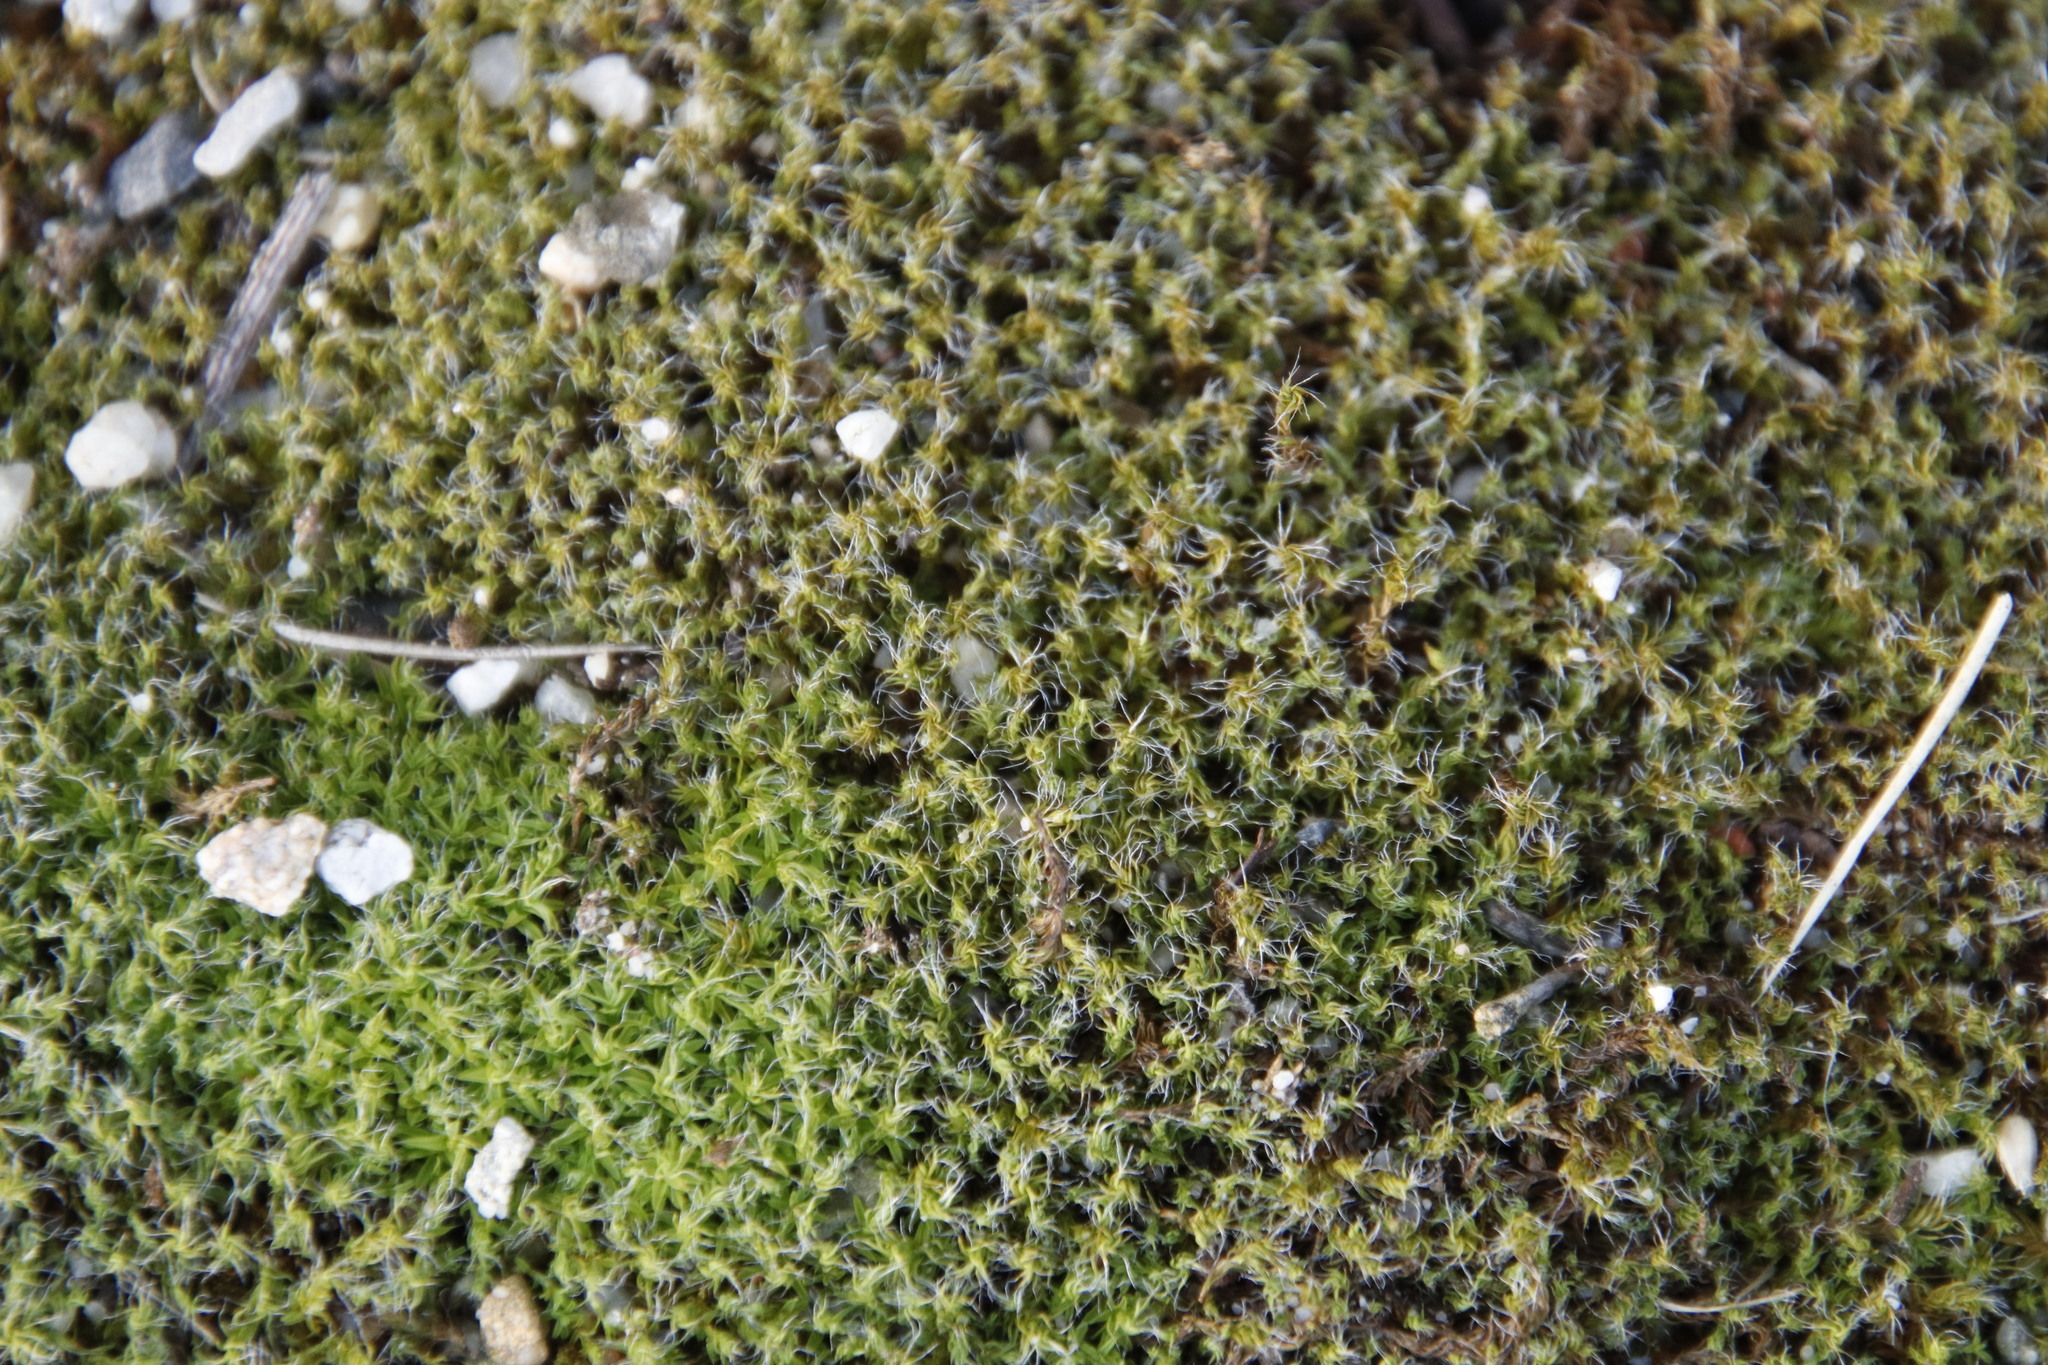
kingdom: Plantae
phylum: Bryophyta
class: Bryopsida
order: Pottiales
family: Pottiaceae
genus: Pseudocrossidium
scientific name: Pseudocrossidium crinitum
